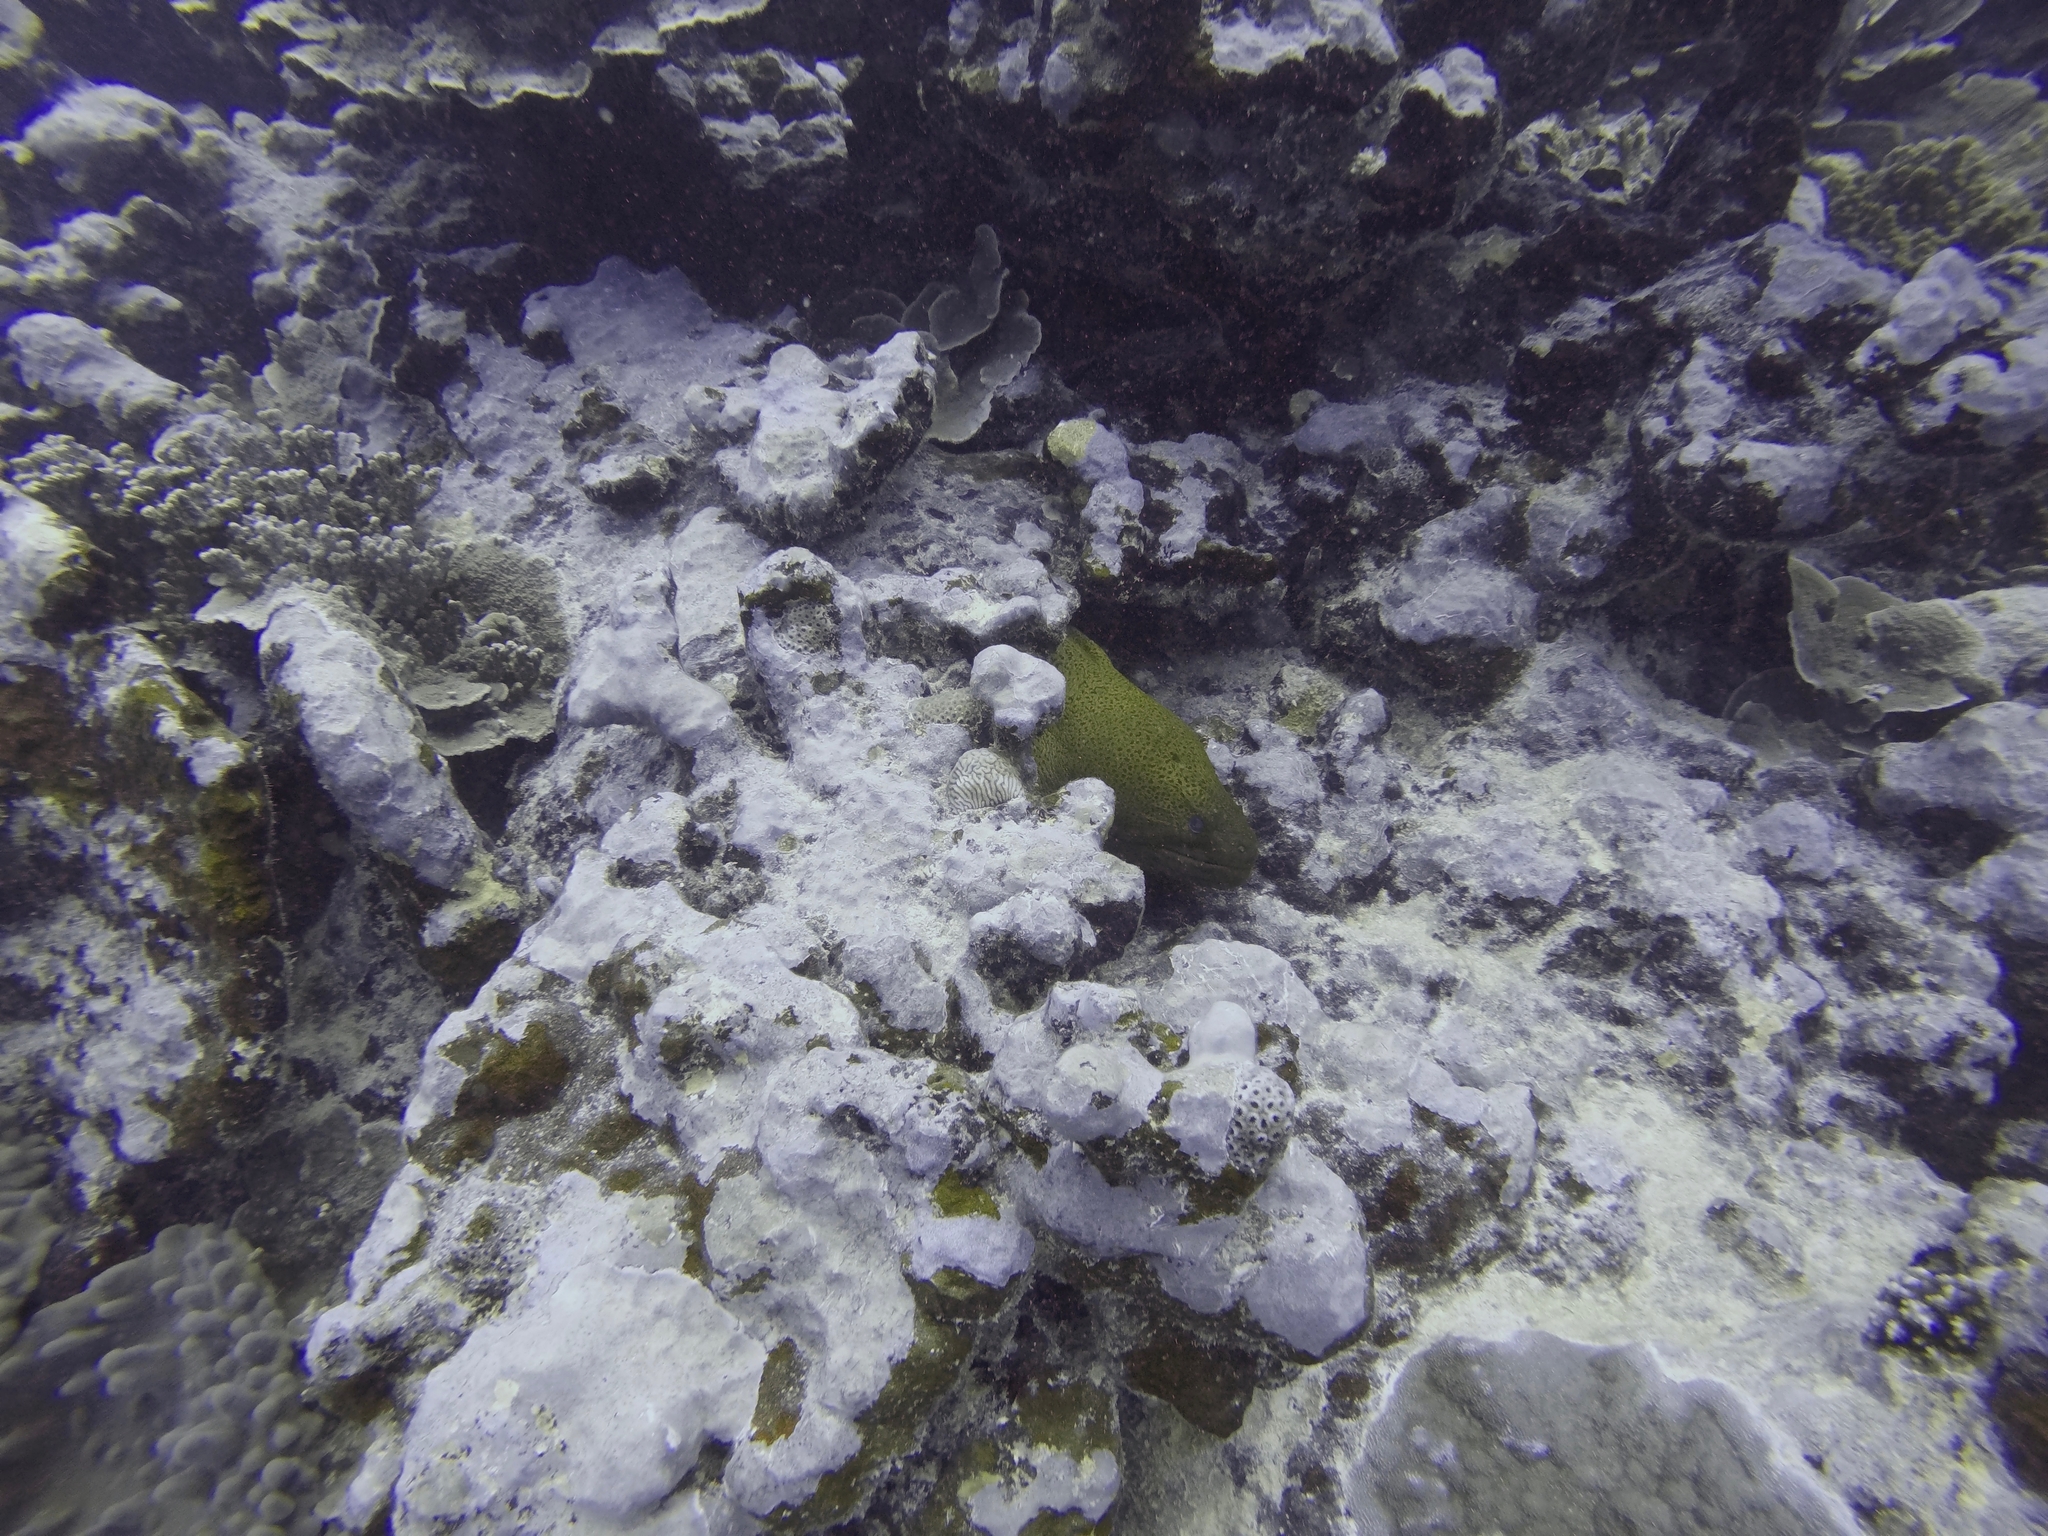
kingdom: Animalia
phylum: Chordata
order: Anguilliformes
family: Muraenidae
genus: Gymnothorax
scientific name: Gymnothorax javanicus
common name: Giant moray
